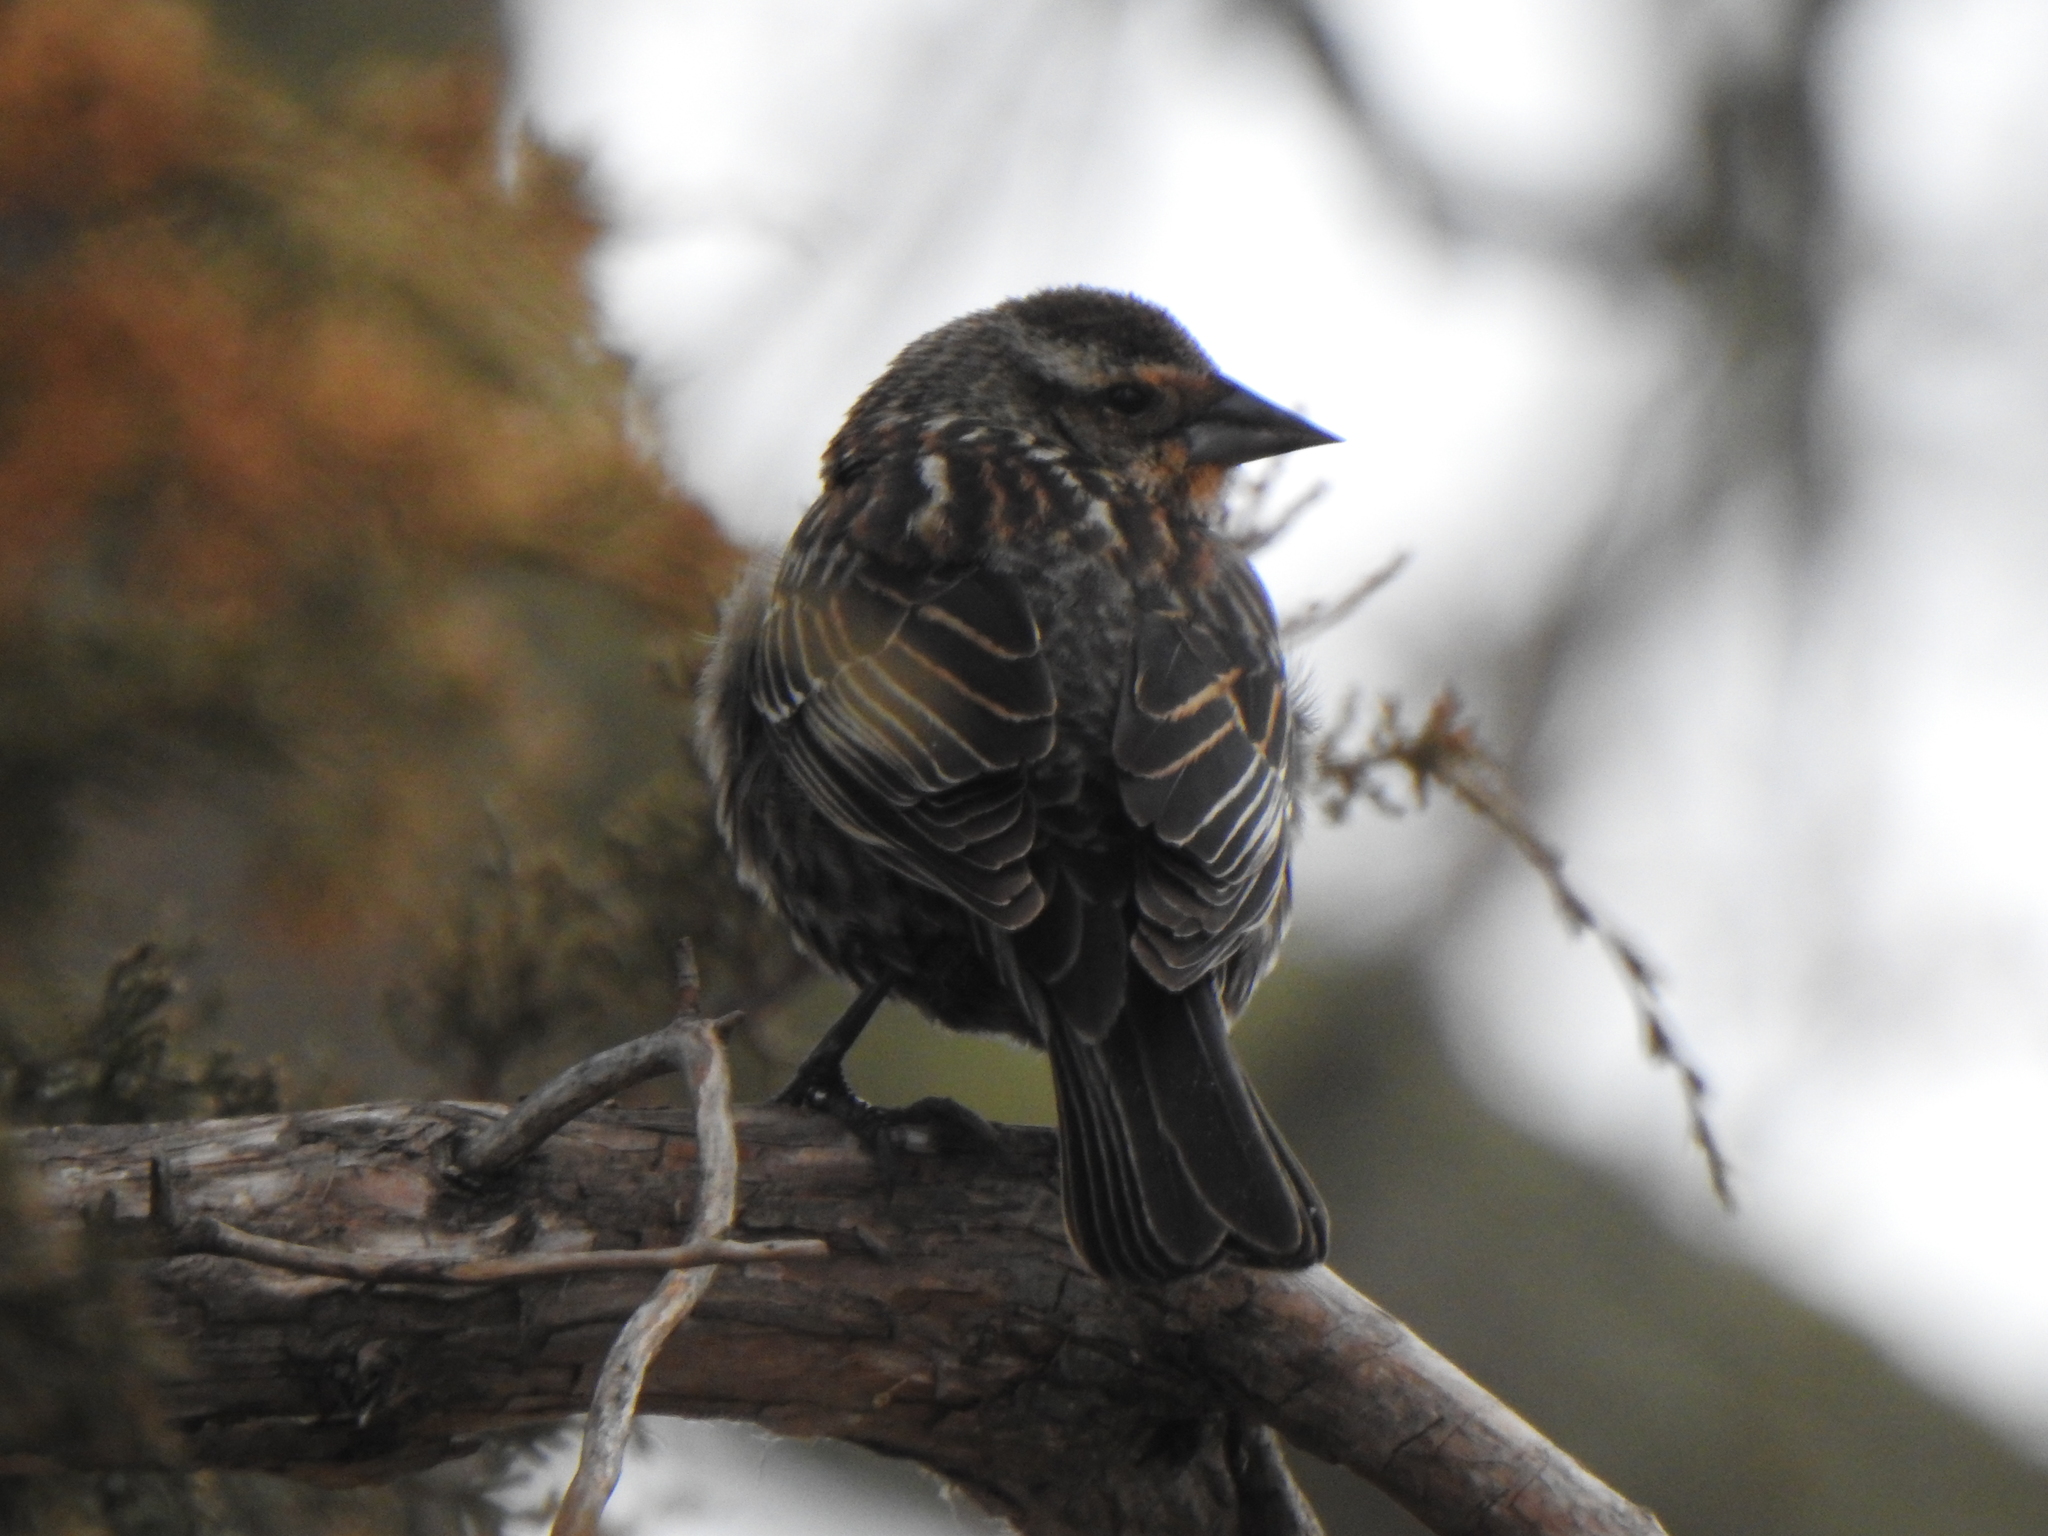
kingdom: Animalia
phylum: Chordata
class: Aves
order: Passeriformes
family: Icteridae
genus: Agelaius
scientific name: Agelaius phoeniceus
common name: Red-winged blackbird
